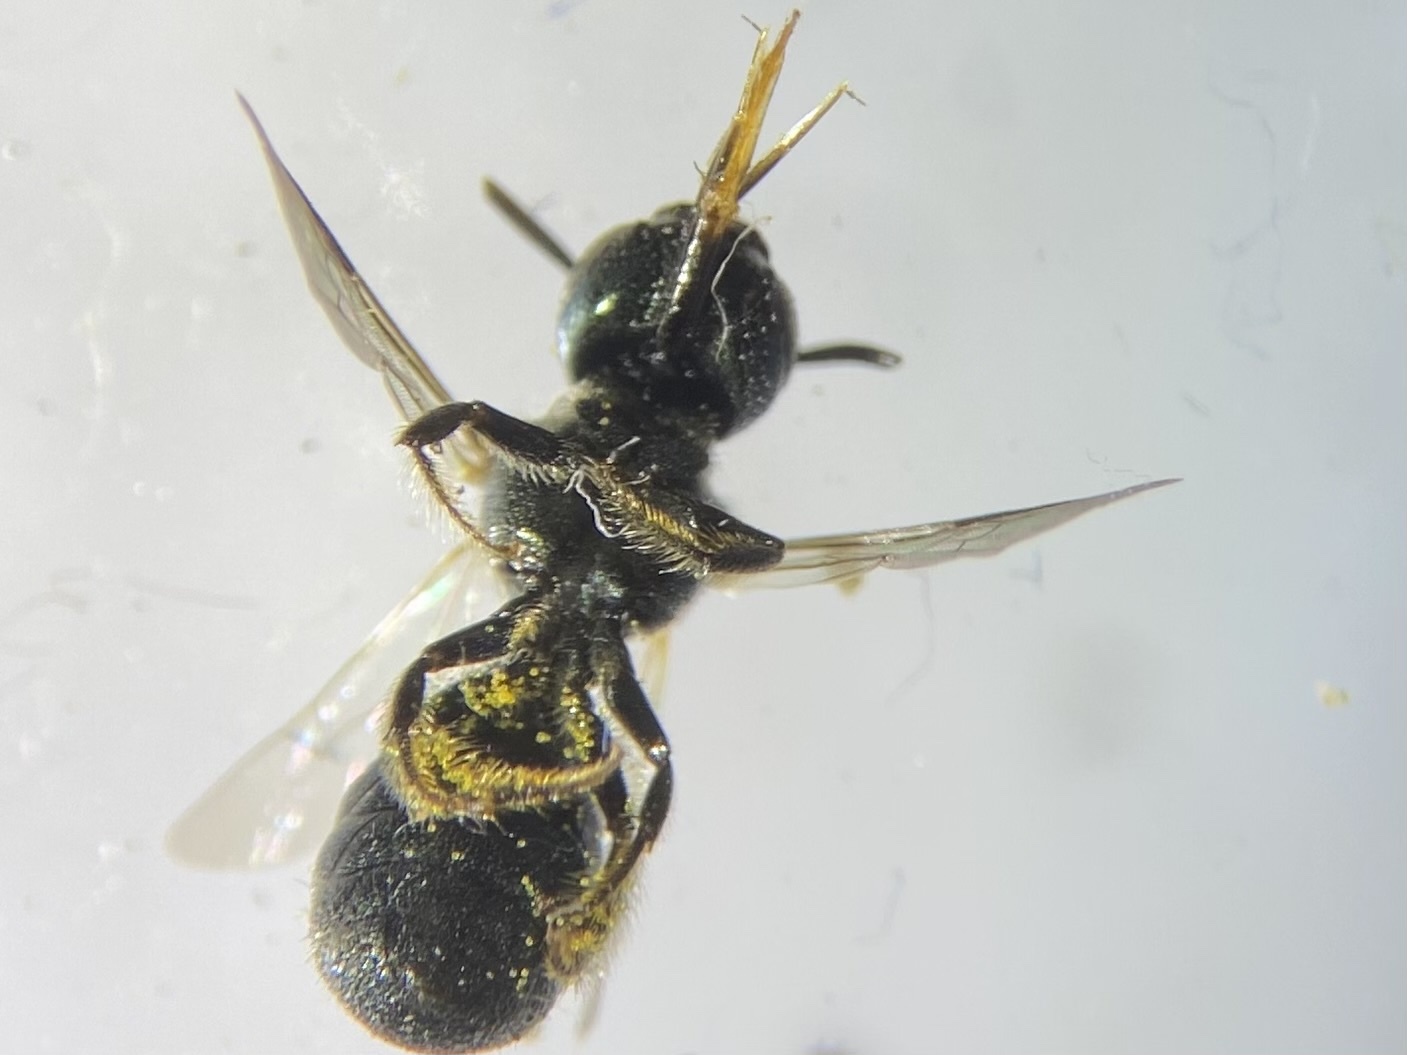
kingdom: Animalia
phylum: Arthropoda
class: Insecta
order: Hymenoptera
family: Apidae
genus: Ceratina
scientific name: Ceratina calcarata
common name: Spurred carpenter bee
